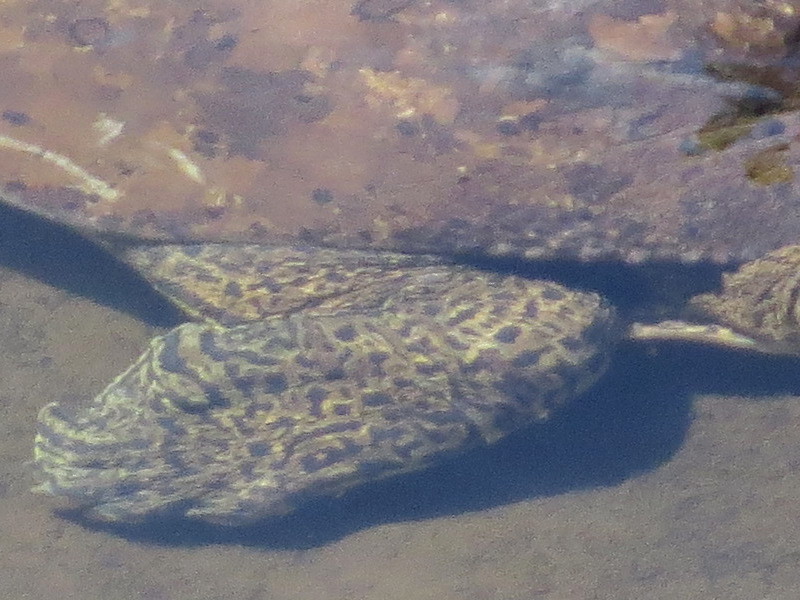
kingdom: Animalia
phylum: Chordata
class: Testudines
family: Trionychidae
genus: Apalone
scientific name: Apalone spinifera
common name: Spiny softshell turtle
